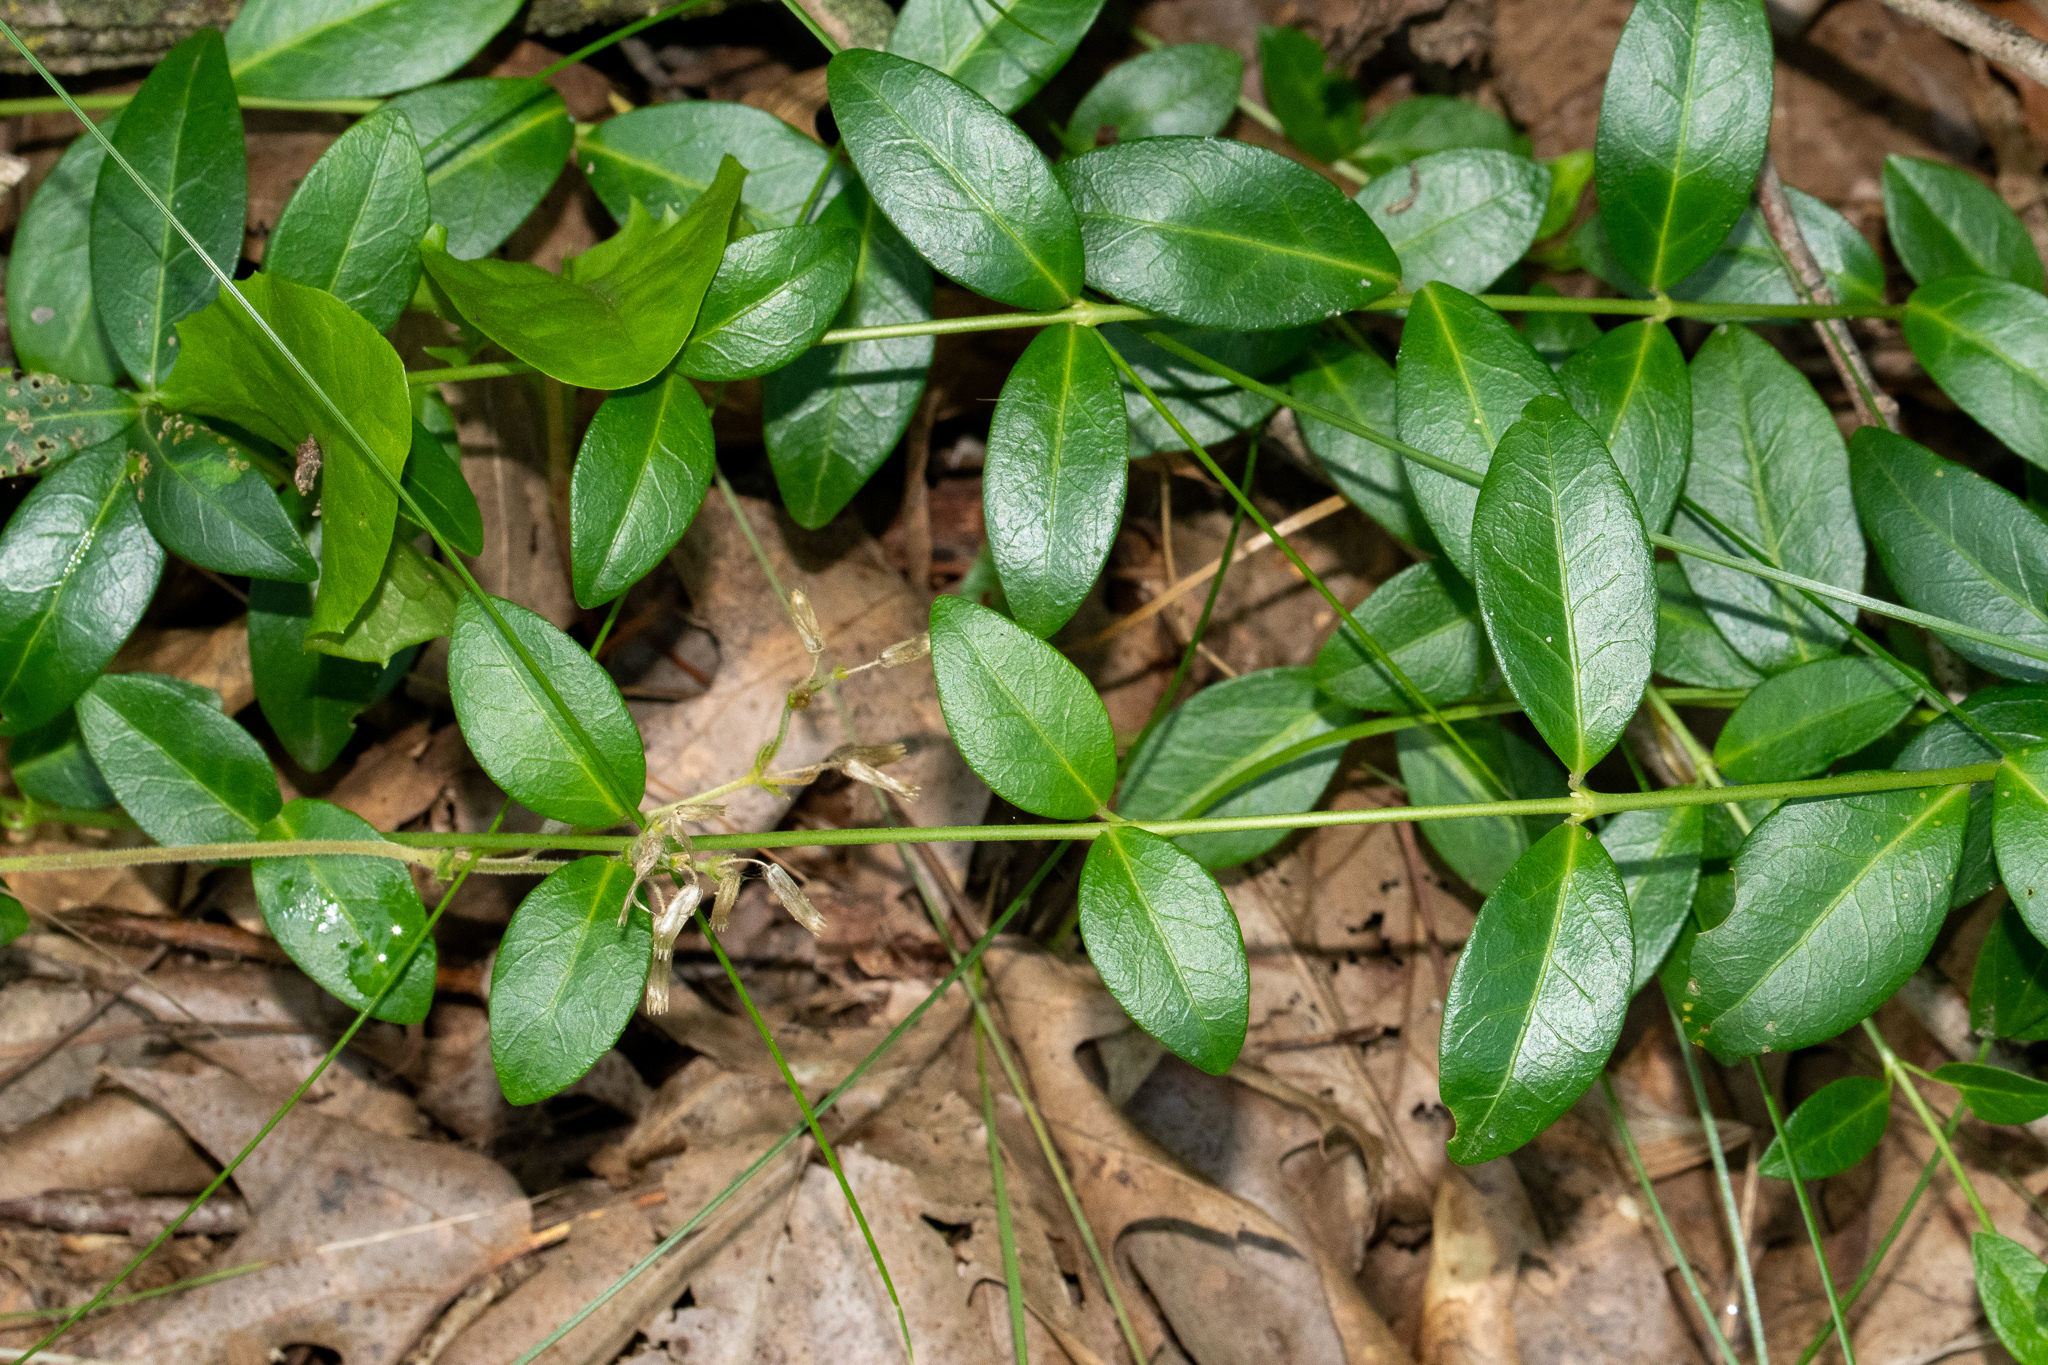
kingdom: Plantae
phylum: Tracheophyta
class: Magnoliopsida
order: Gentianales
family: Apocynaceae
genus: Vinca
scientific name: Vinca minor
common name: Lesser periwinkle
